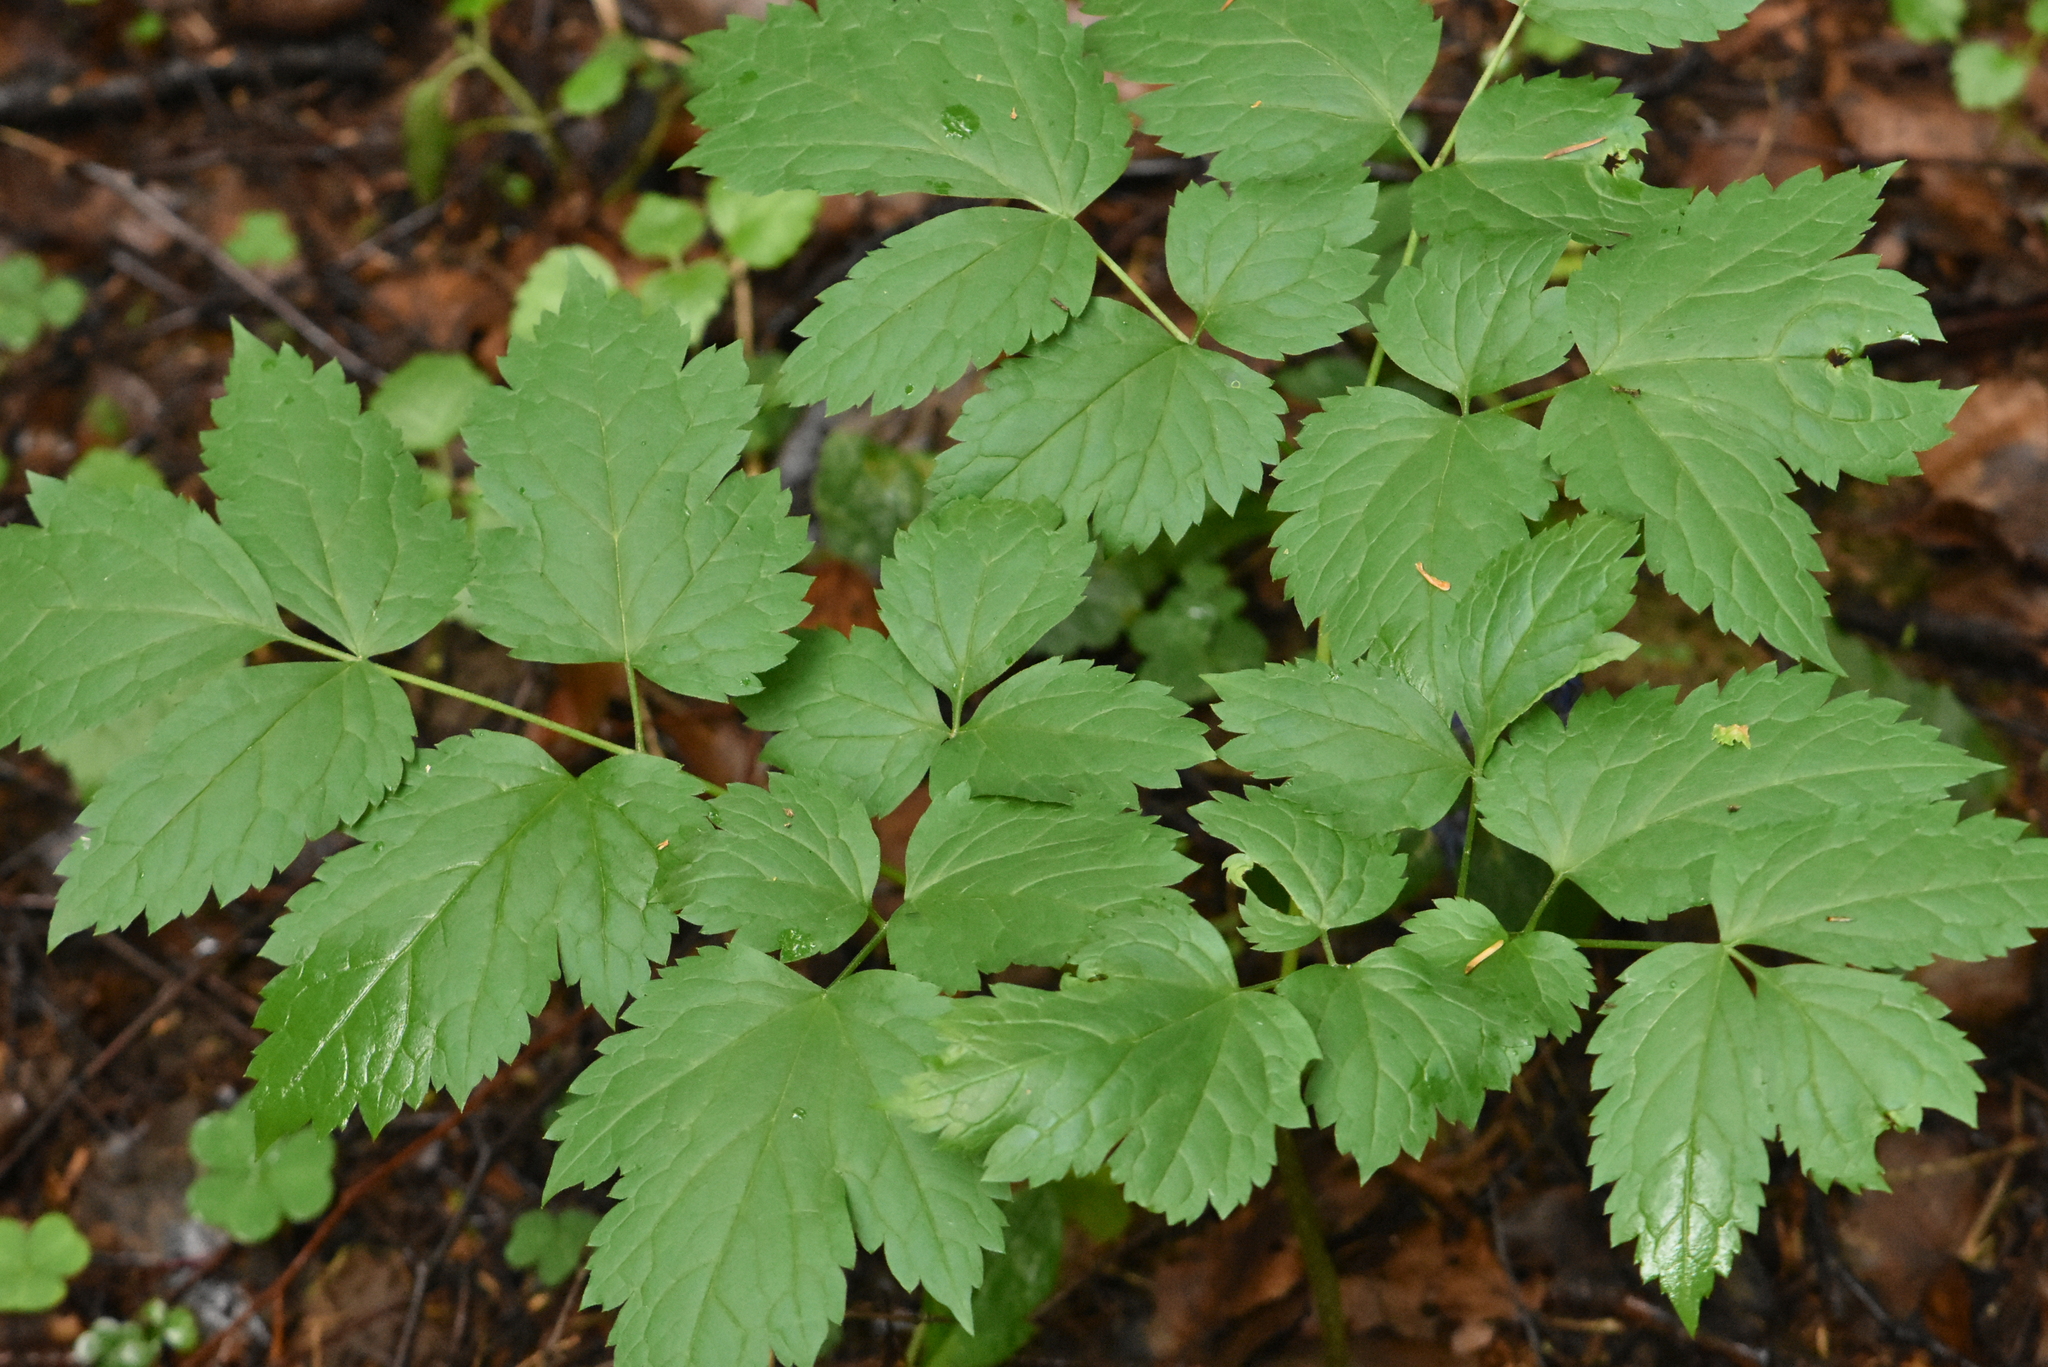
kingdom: Plantae
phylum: Tracheophyta
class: Magnoliopsida
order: Ranunculales
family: Ranunculaceae
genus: Actaea
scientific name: Actaea spicata
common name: Baneberry
